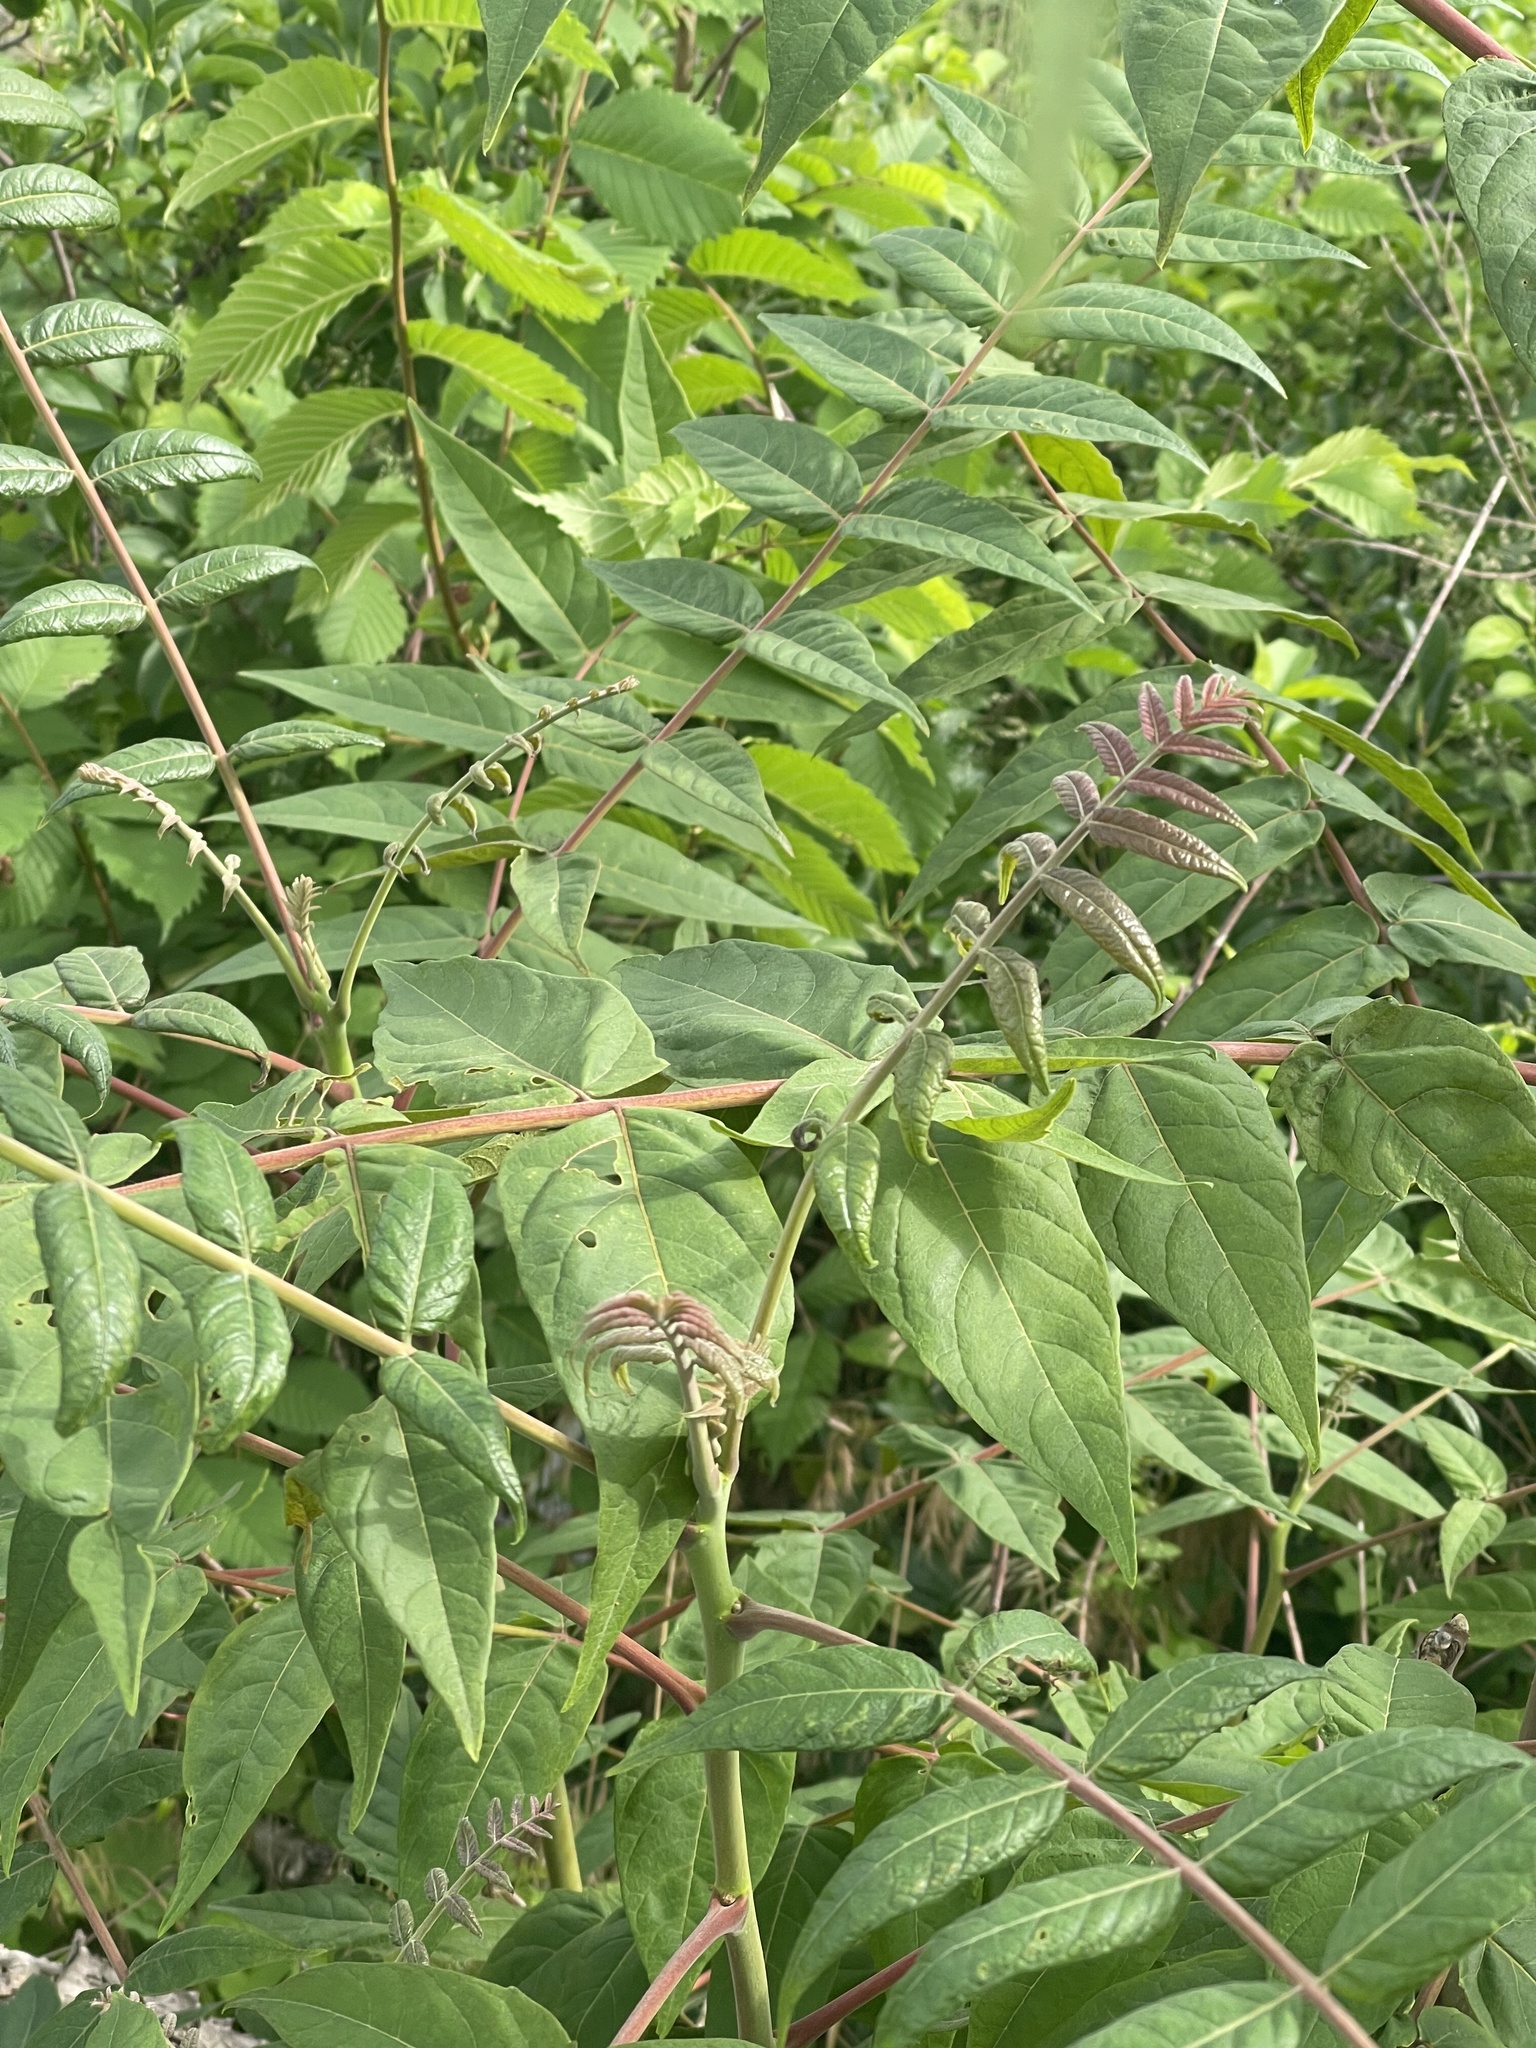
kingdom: Plantae
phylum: Tracheophyta
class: Magnoliopsida
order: Sapindales
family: Anacardiaceae
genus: Rhus
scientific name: Rhus copallina
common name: Shining sumac
